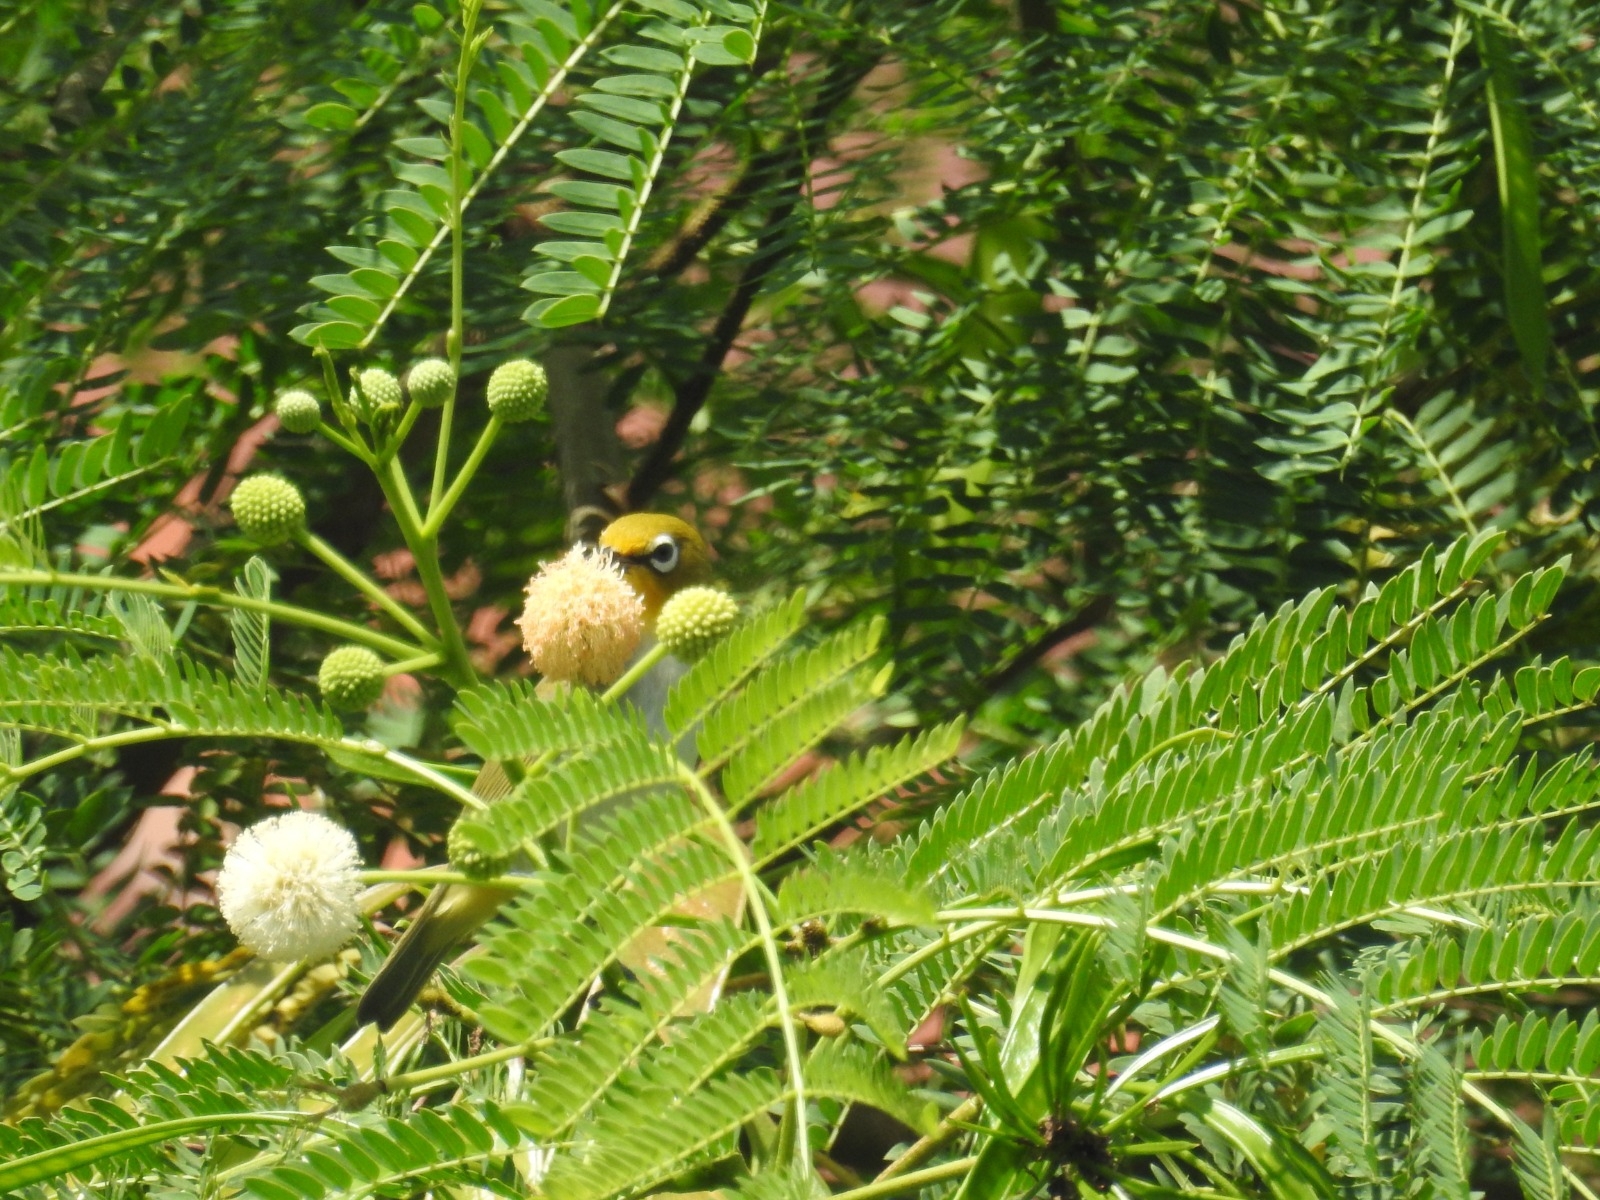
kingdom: Animalia
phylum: Chordata
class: Aves
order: Passeriformes
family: Zosteropidae
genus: Zosterops
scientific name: Zosterops citrinella
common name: Ashy-bellied white-eye
